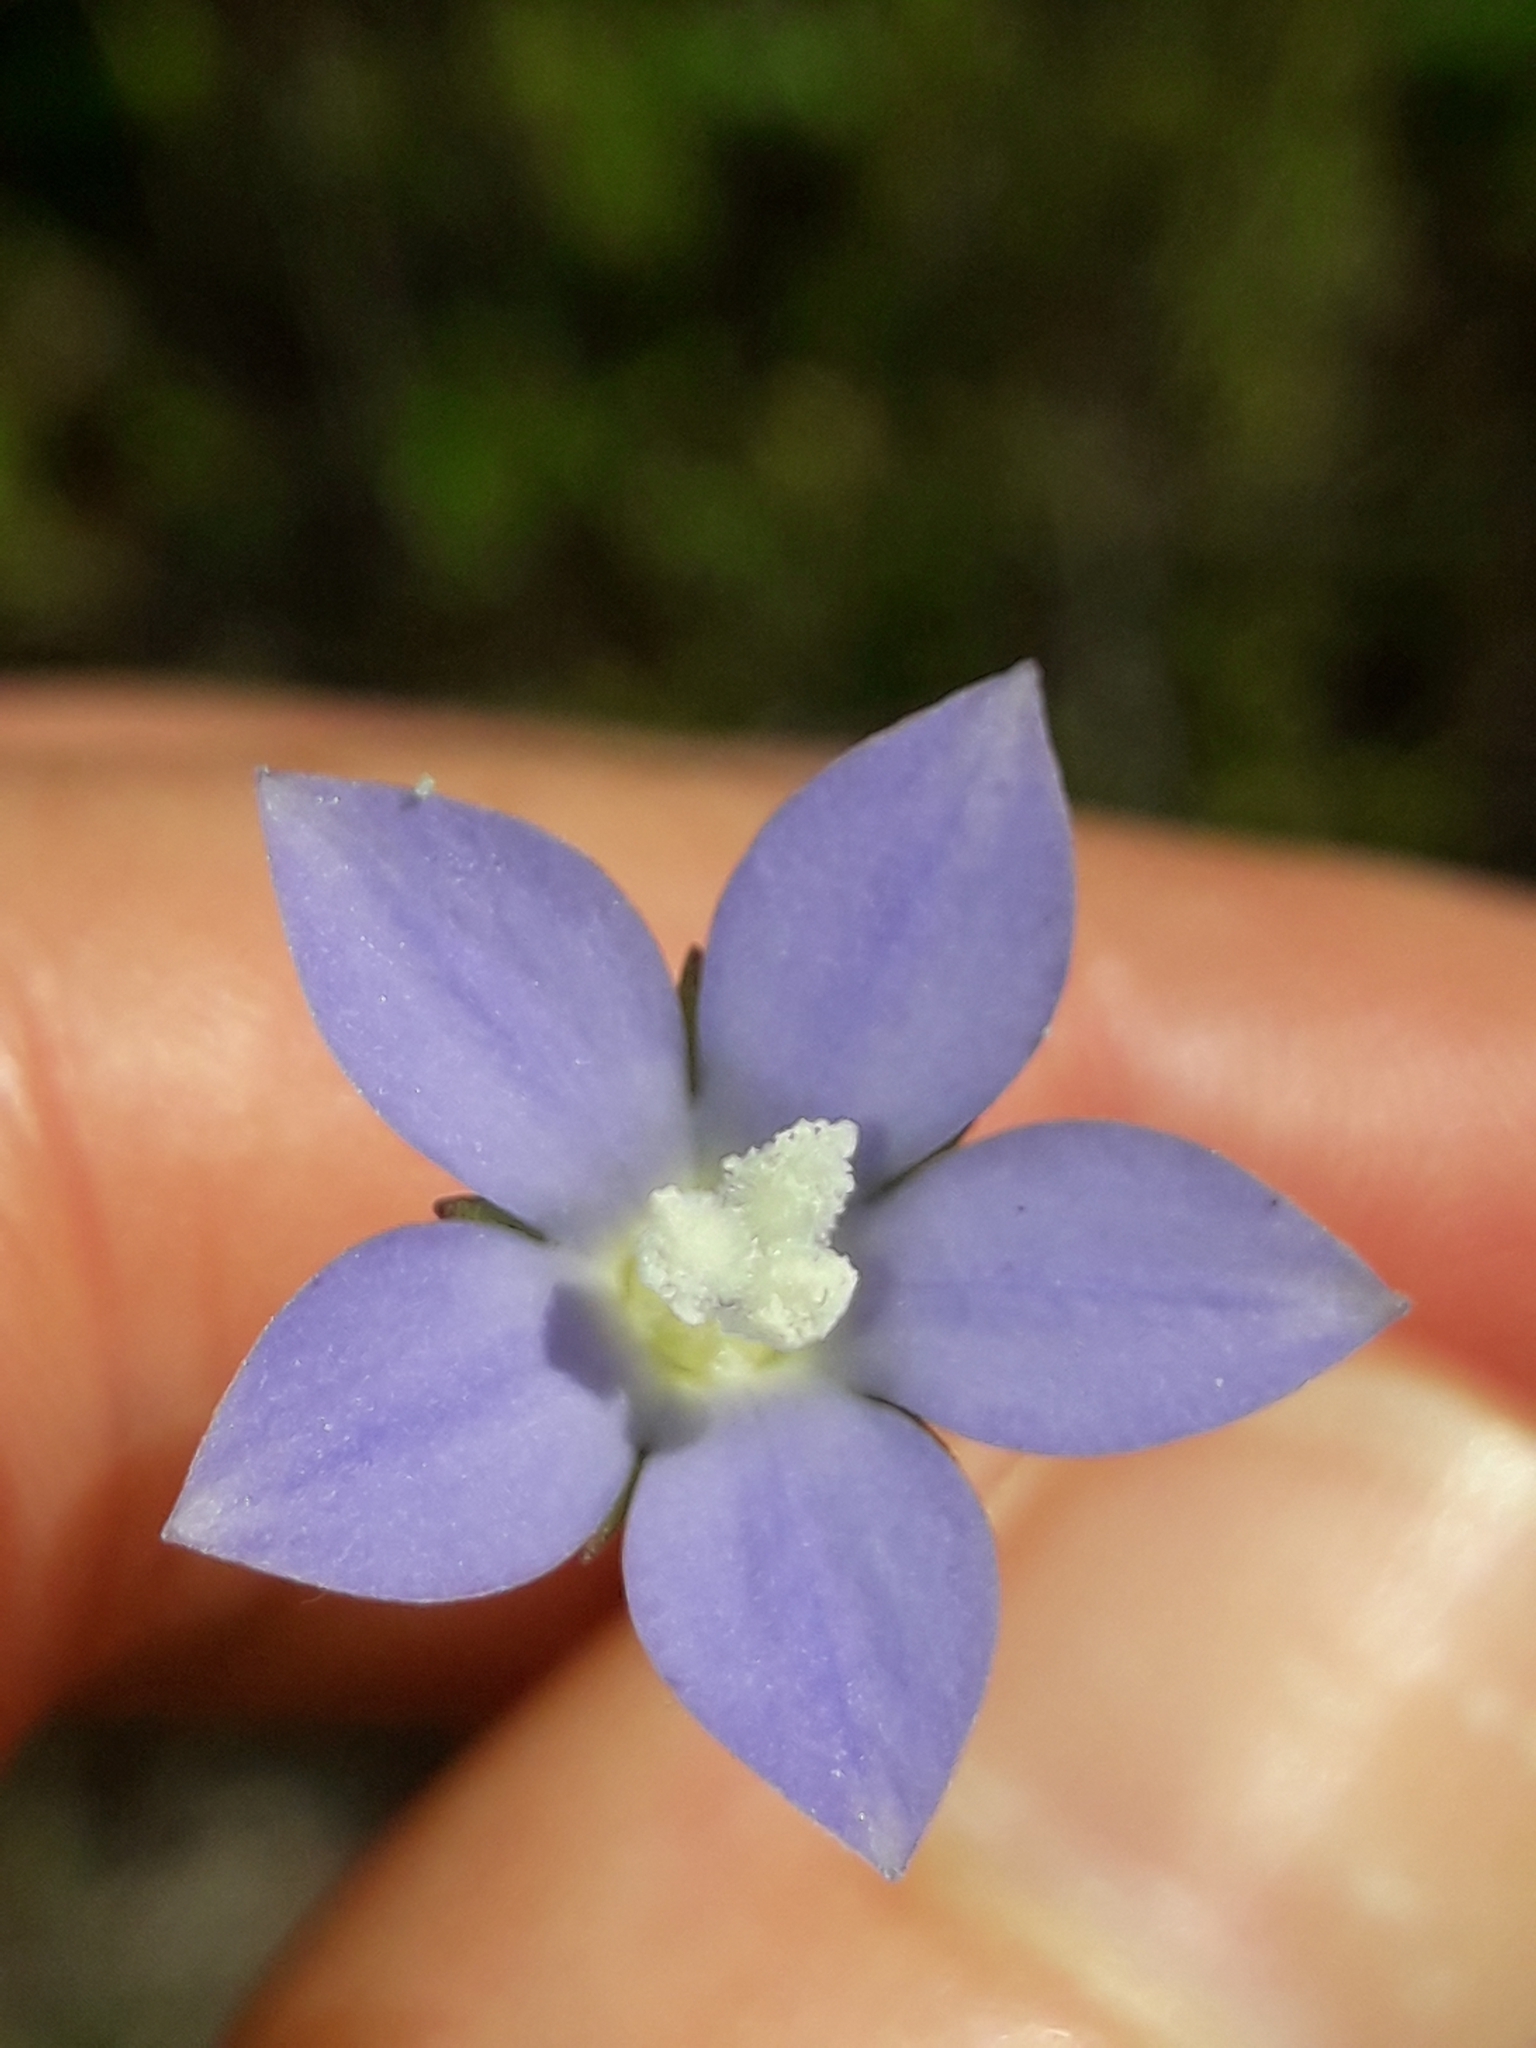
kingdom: Plantae
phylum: Tracheophyta
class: Magnoliopsida
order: Asterales
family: Campanulaceae
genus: Wahlenbergia
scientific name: Wahlenbergia violacea
